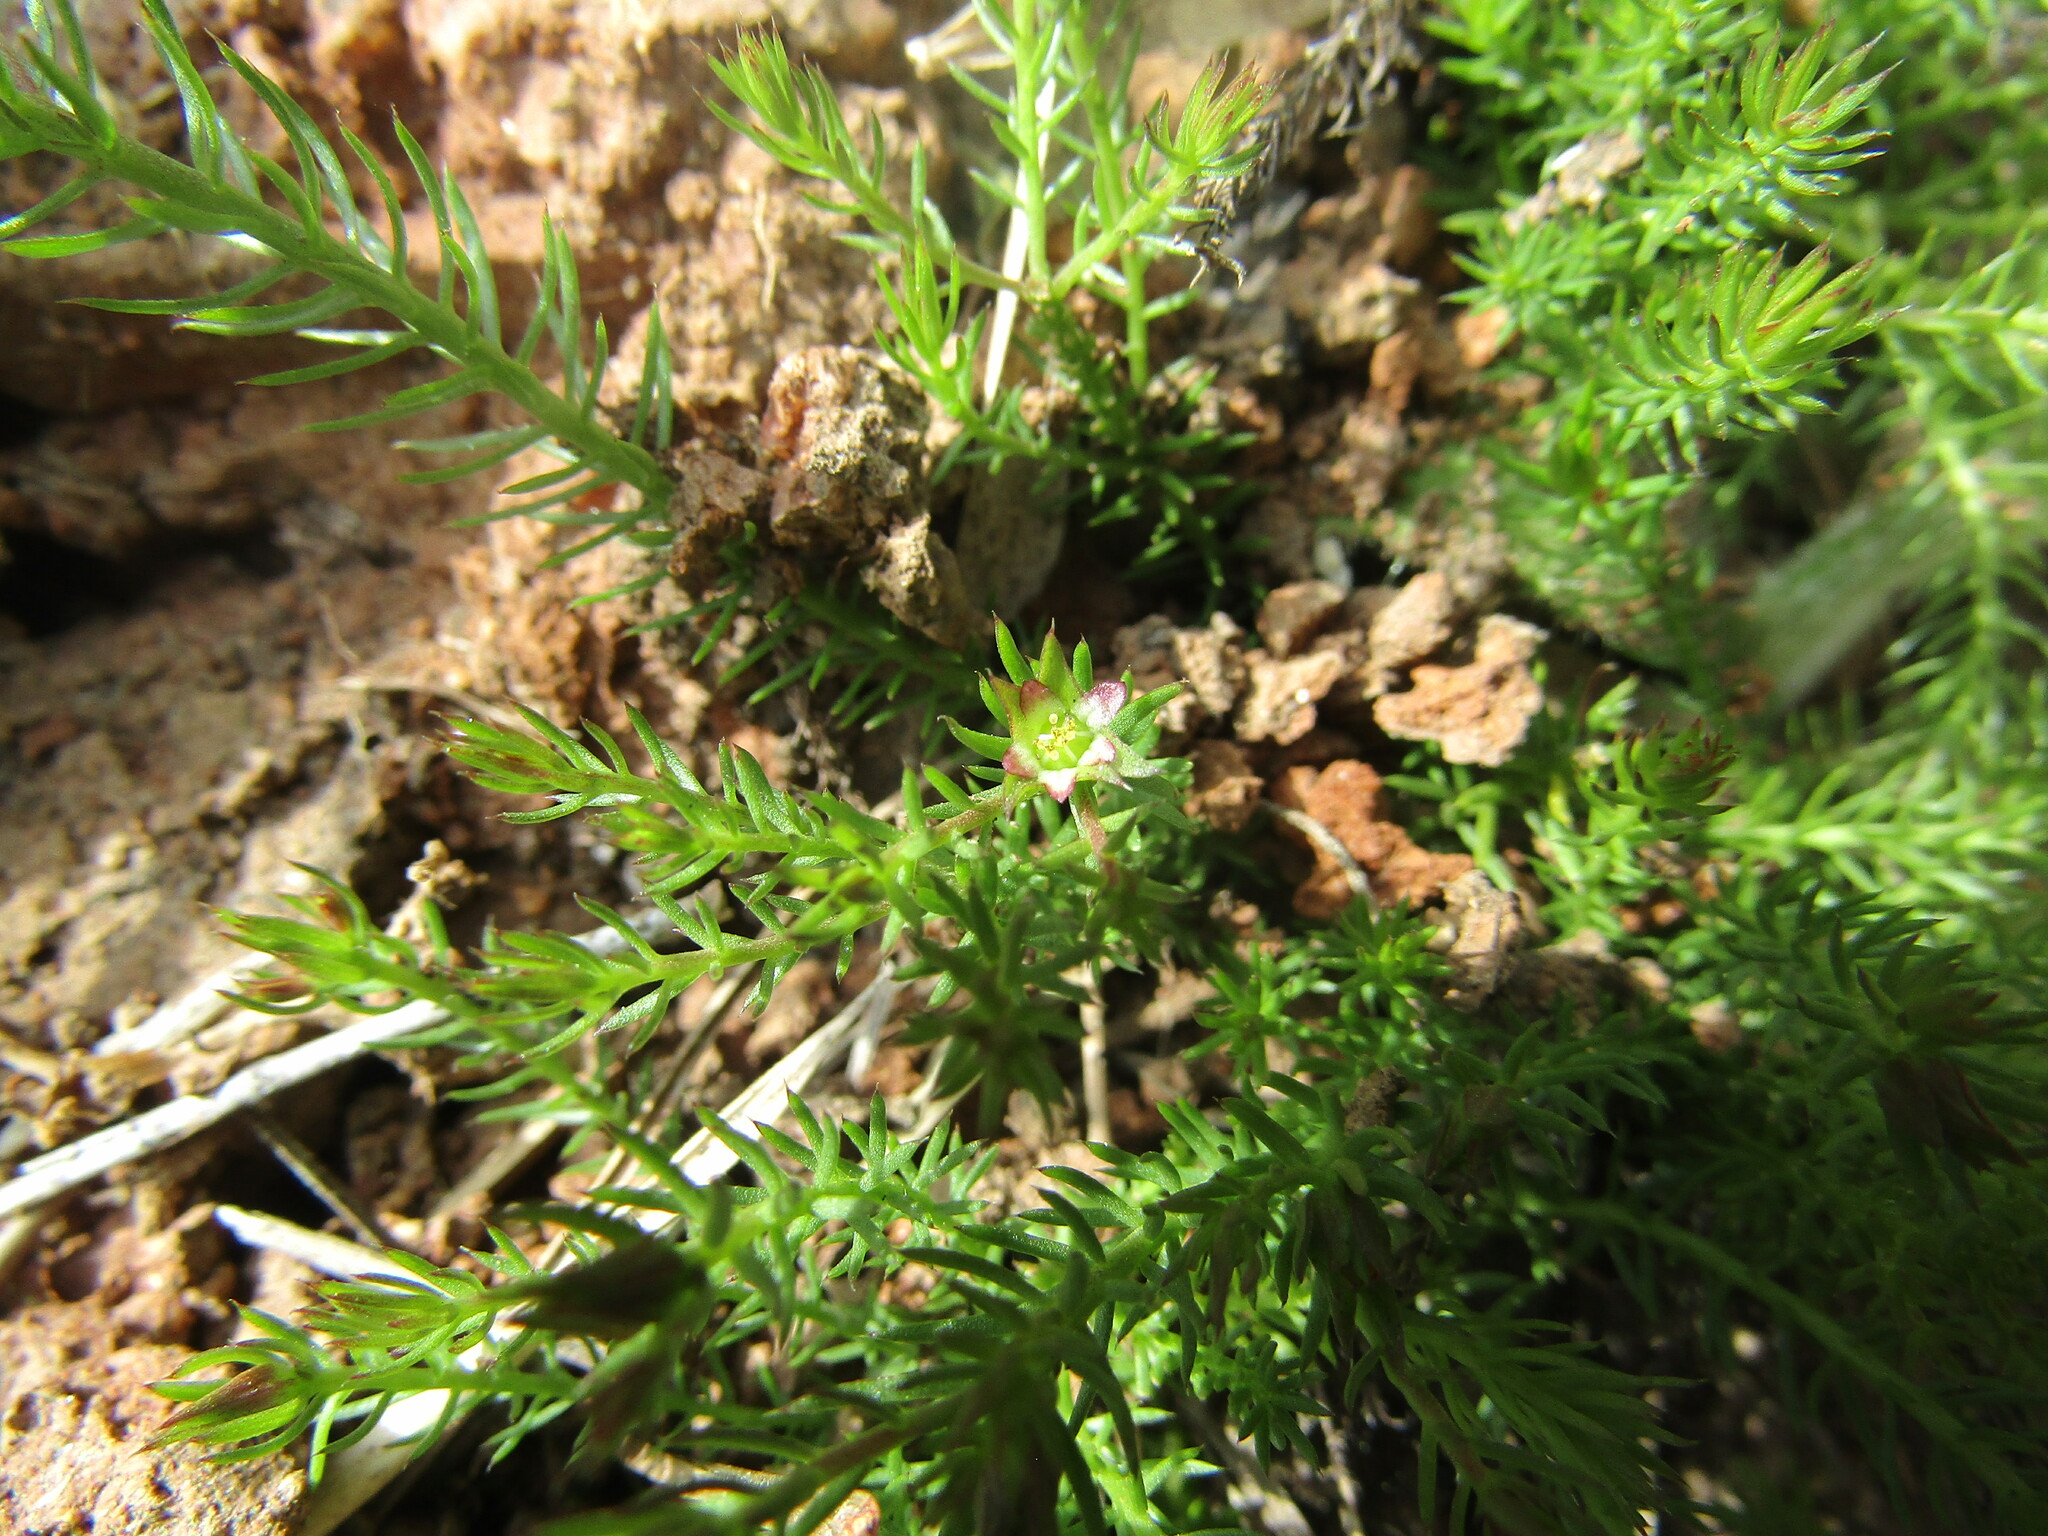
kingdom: Plantae
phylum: Tracheophyta
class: Magnoliopsida
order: Malpighiales
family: Linaceae
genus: Cliococca
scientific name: Cliococca selaginoides
